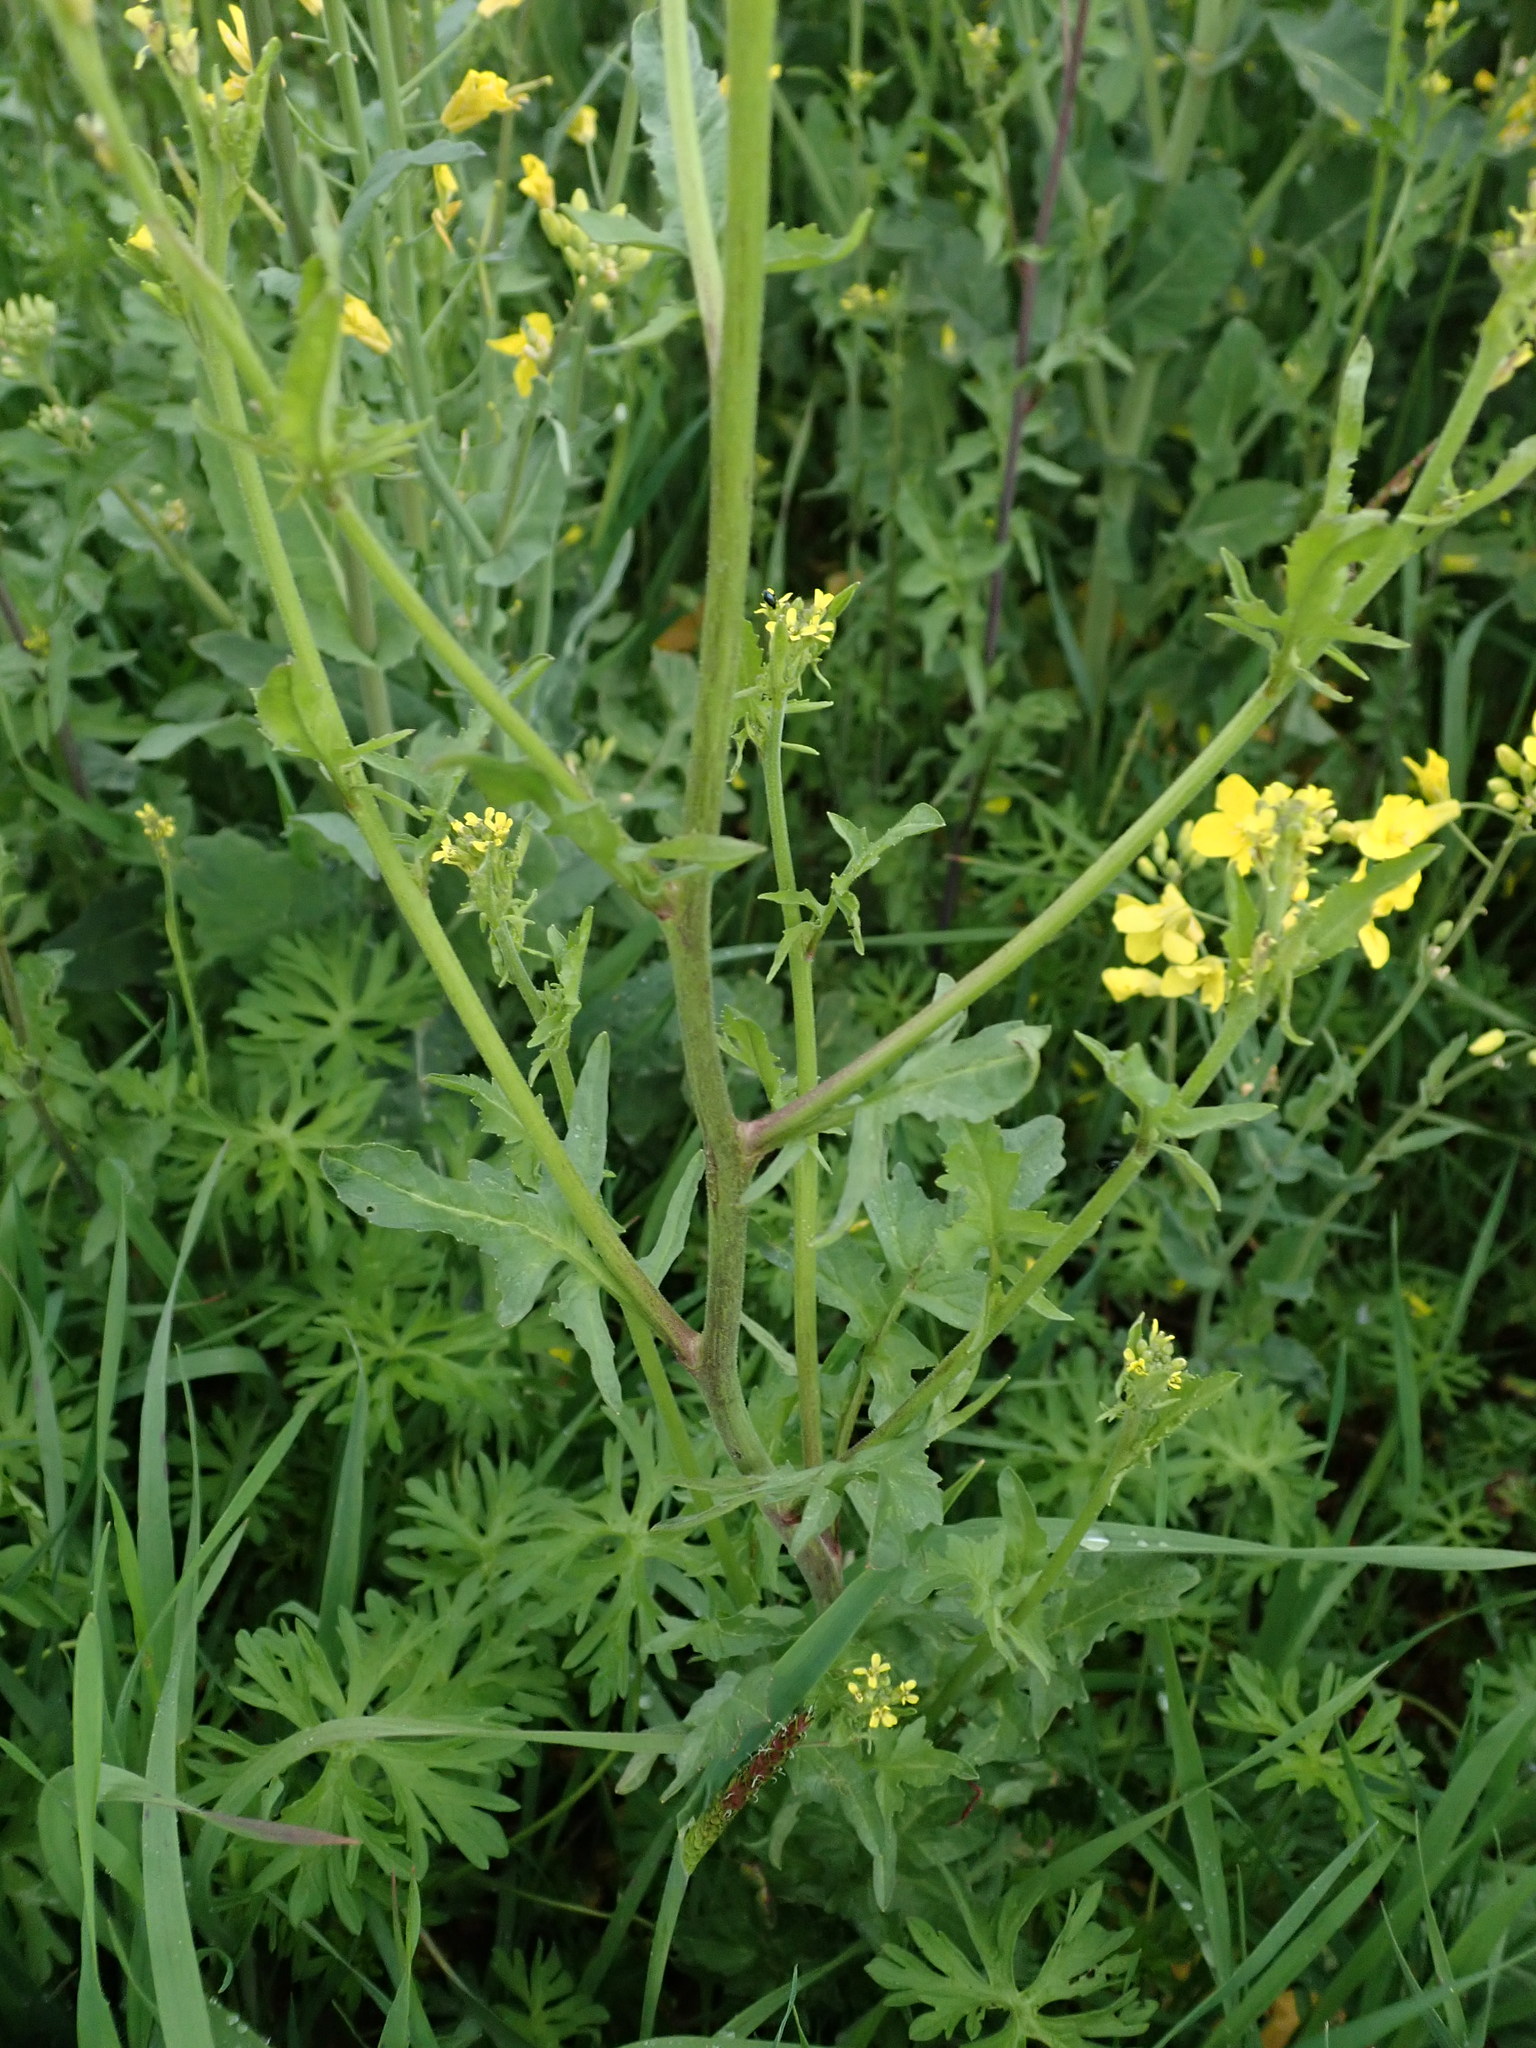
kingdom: Plantae
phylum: Tracheophyta
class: Magnoliopsida
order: Brassicales
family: Brassicaceae
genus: Sisymbrium
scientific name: Sisymbrium officinale
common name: Hedge mustard
